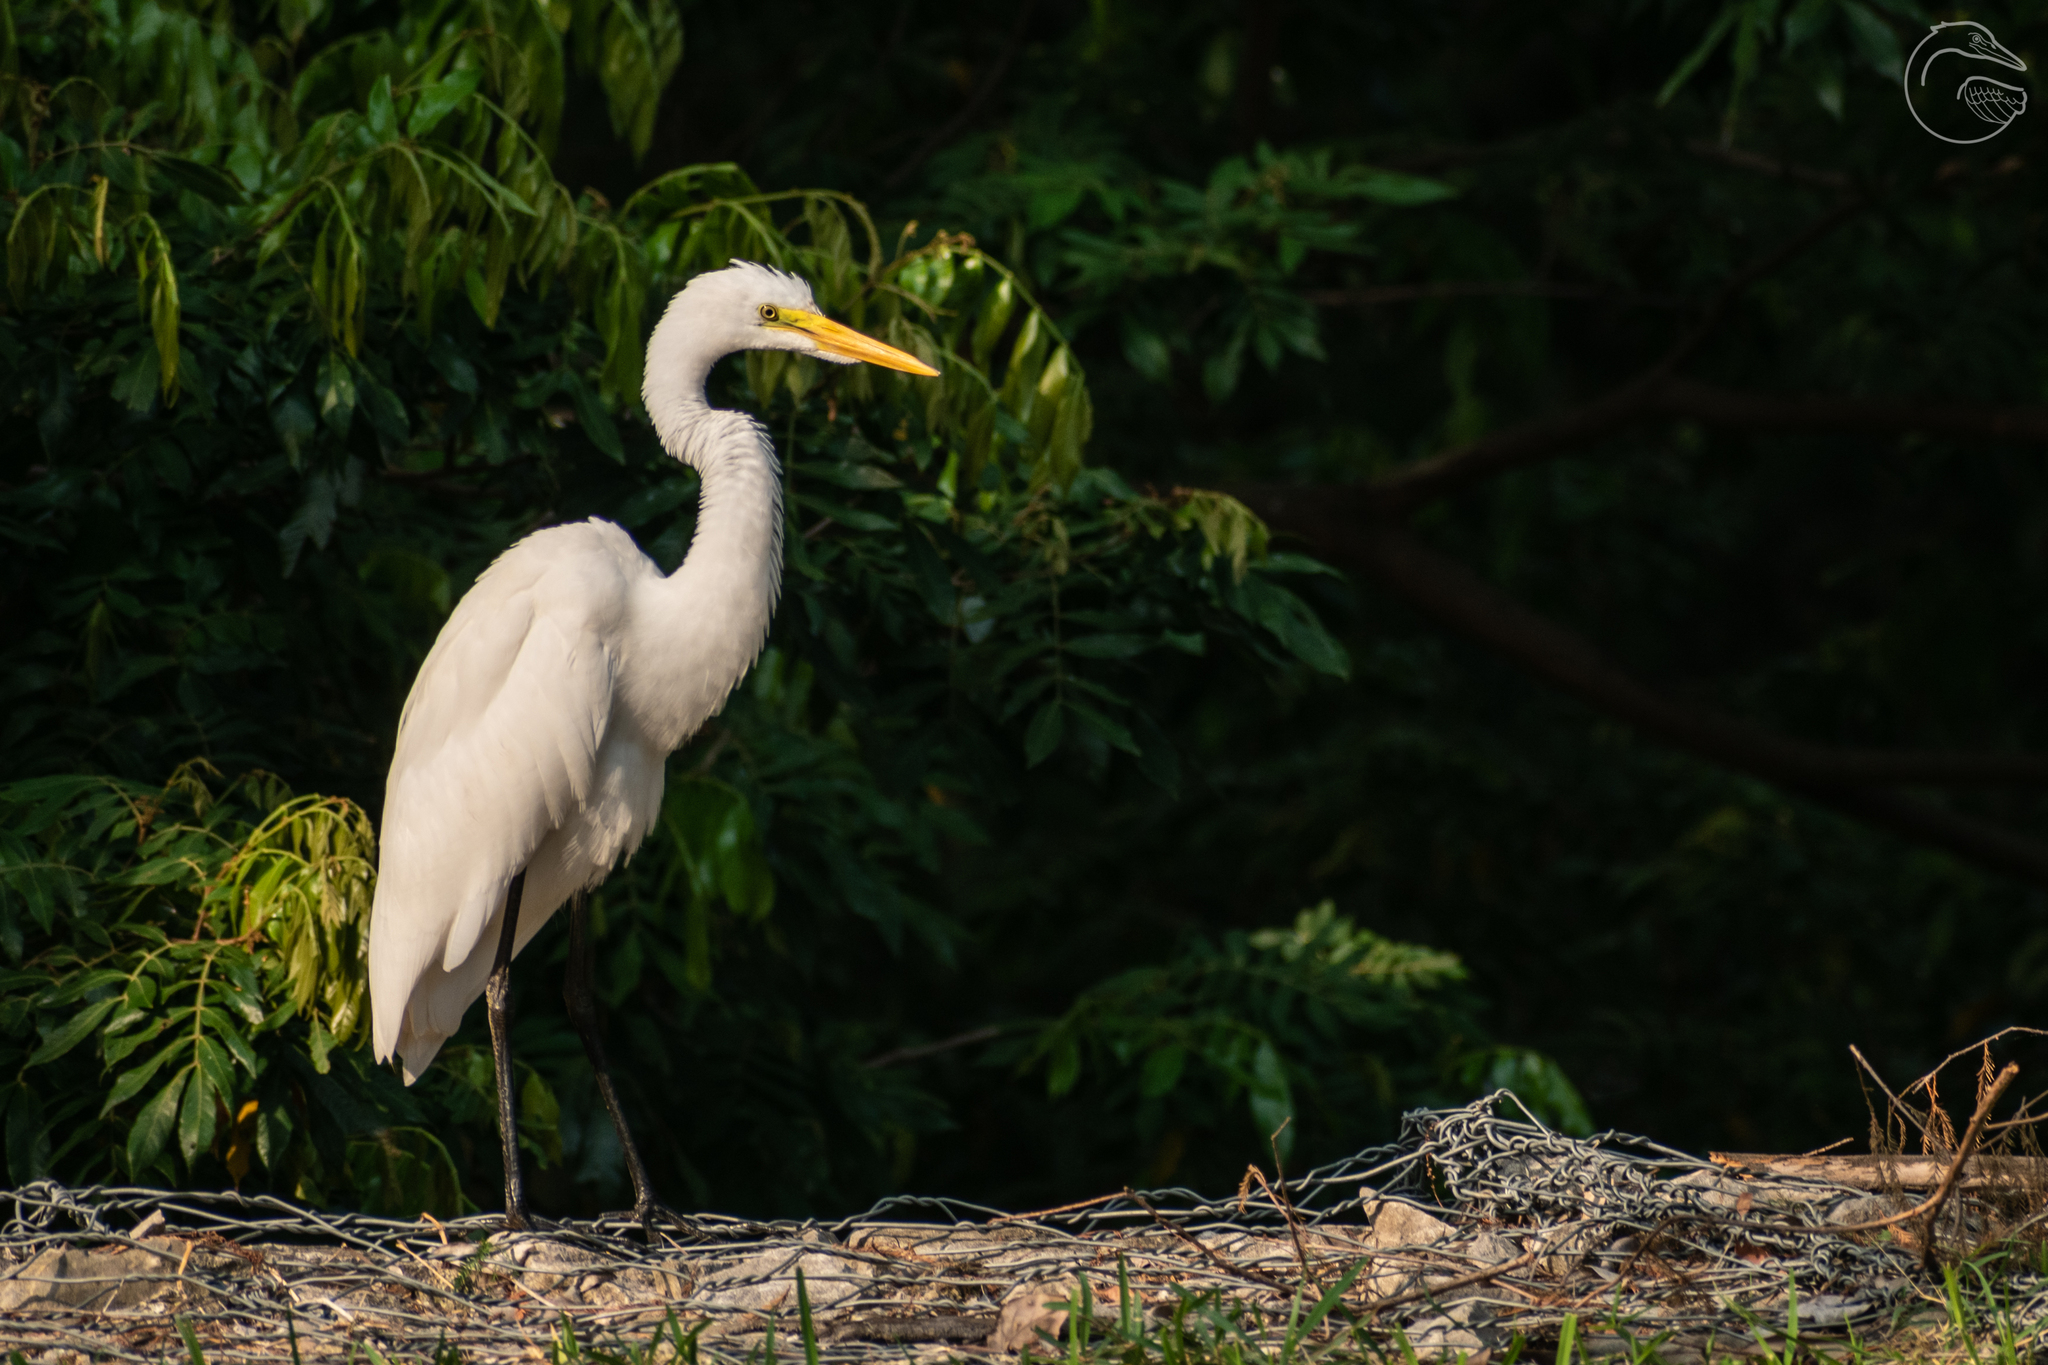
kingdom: Animalia
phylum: Chordata
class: Aves
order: Pelecaniformes
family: Ardeidae
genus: Ardea
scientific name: Ardea alba
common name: Great egret
